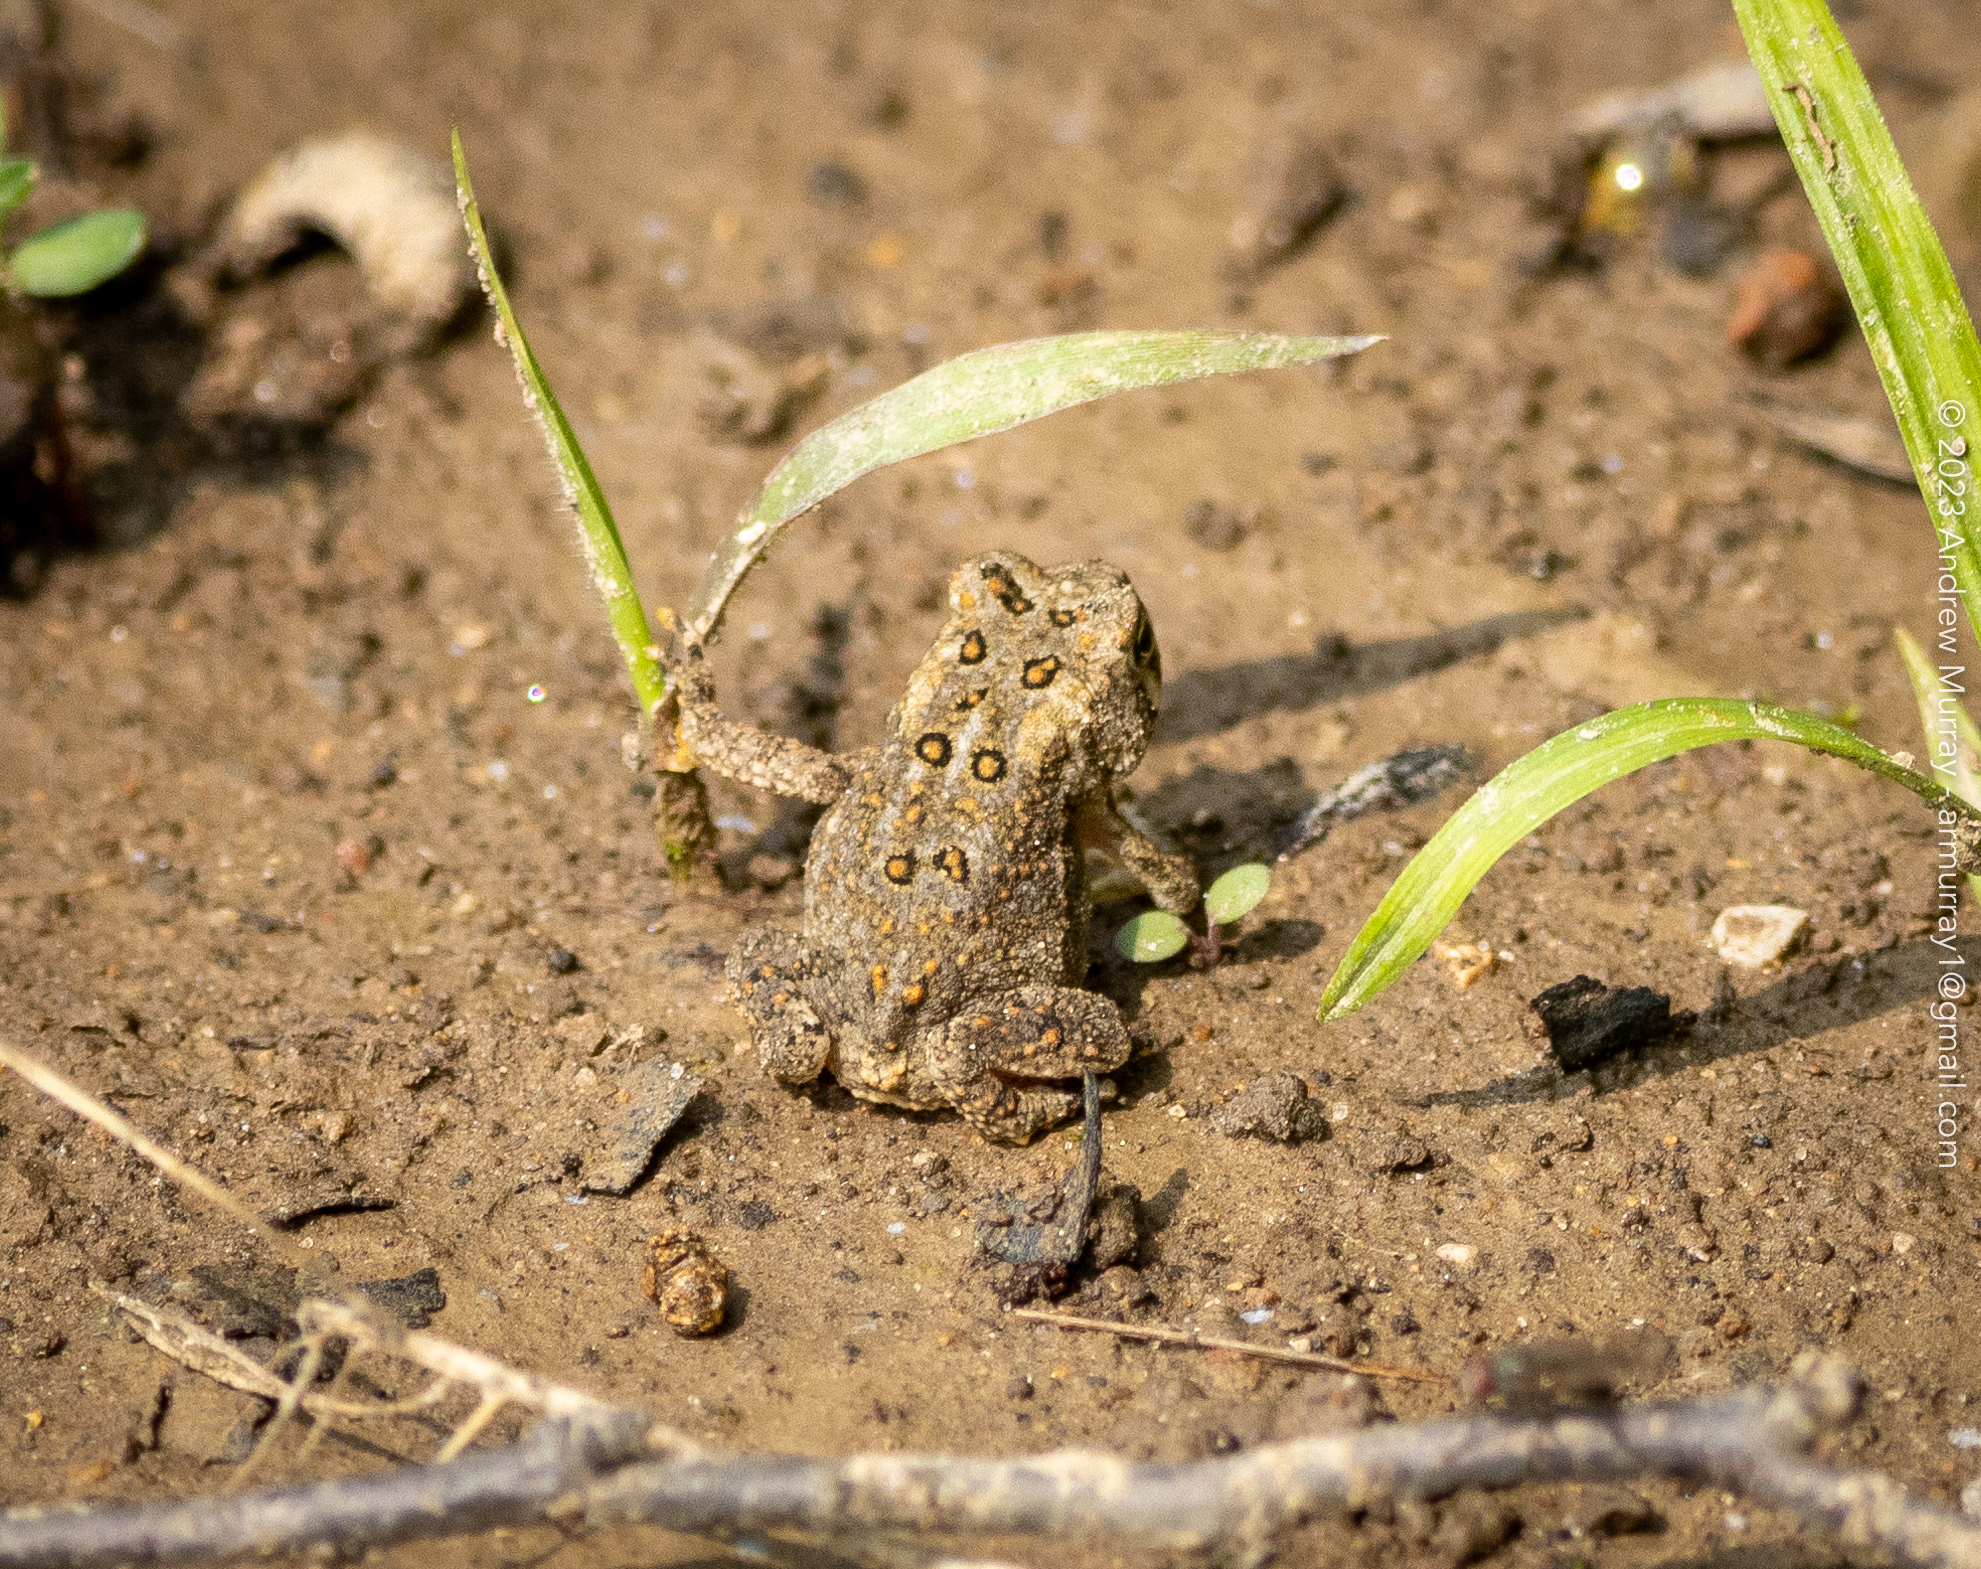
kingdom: Animalia
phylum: Chordata
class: Amphibia
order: Anura
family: Bufonidae
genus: Anaxyrus
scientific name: Anaxyrus americanus
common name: American toad
